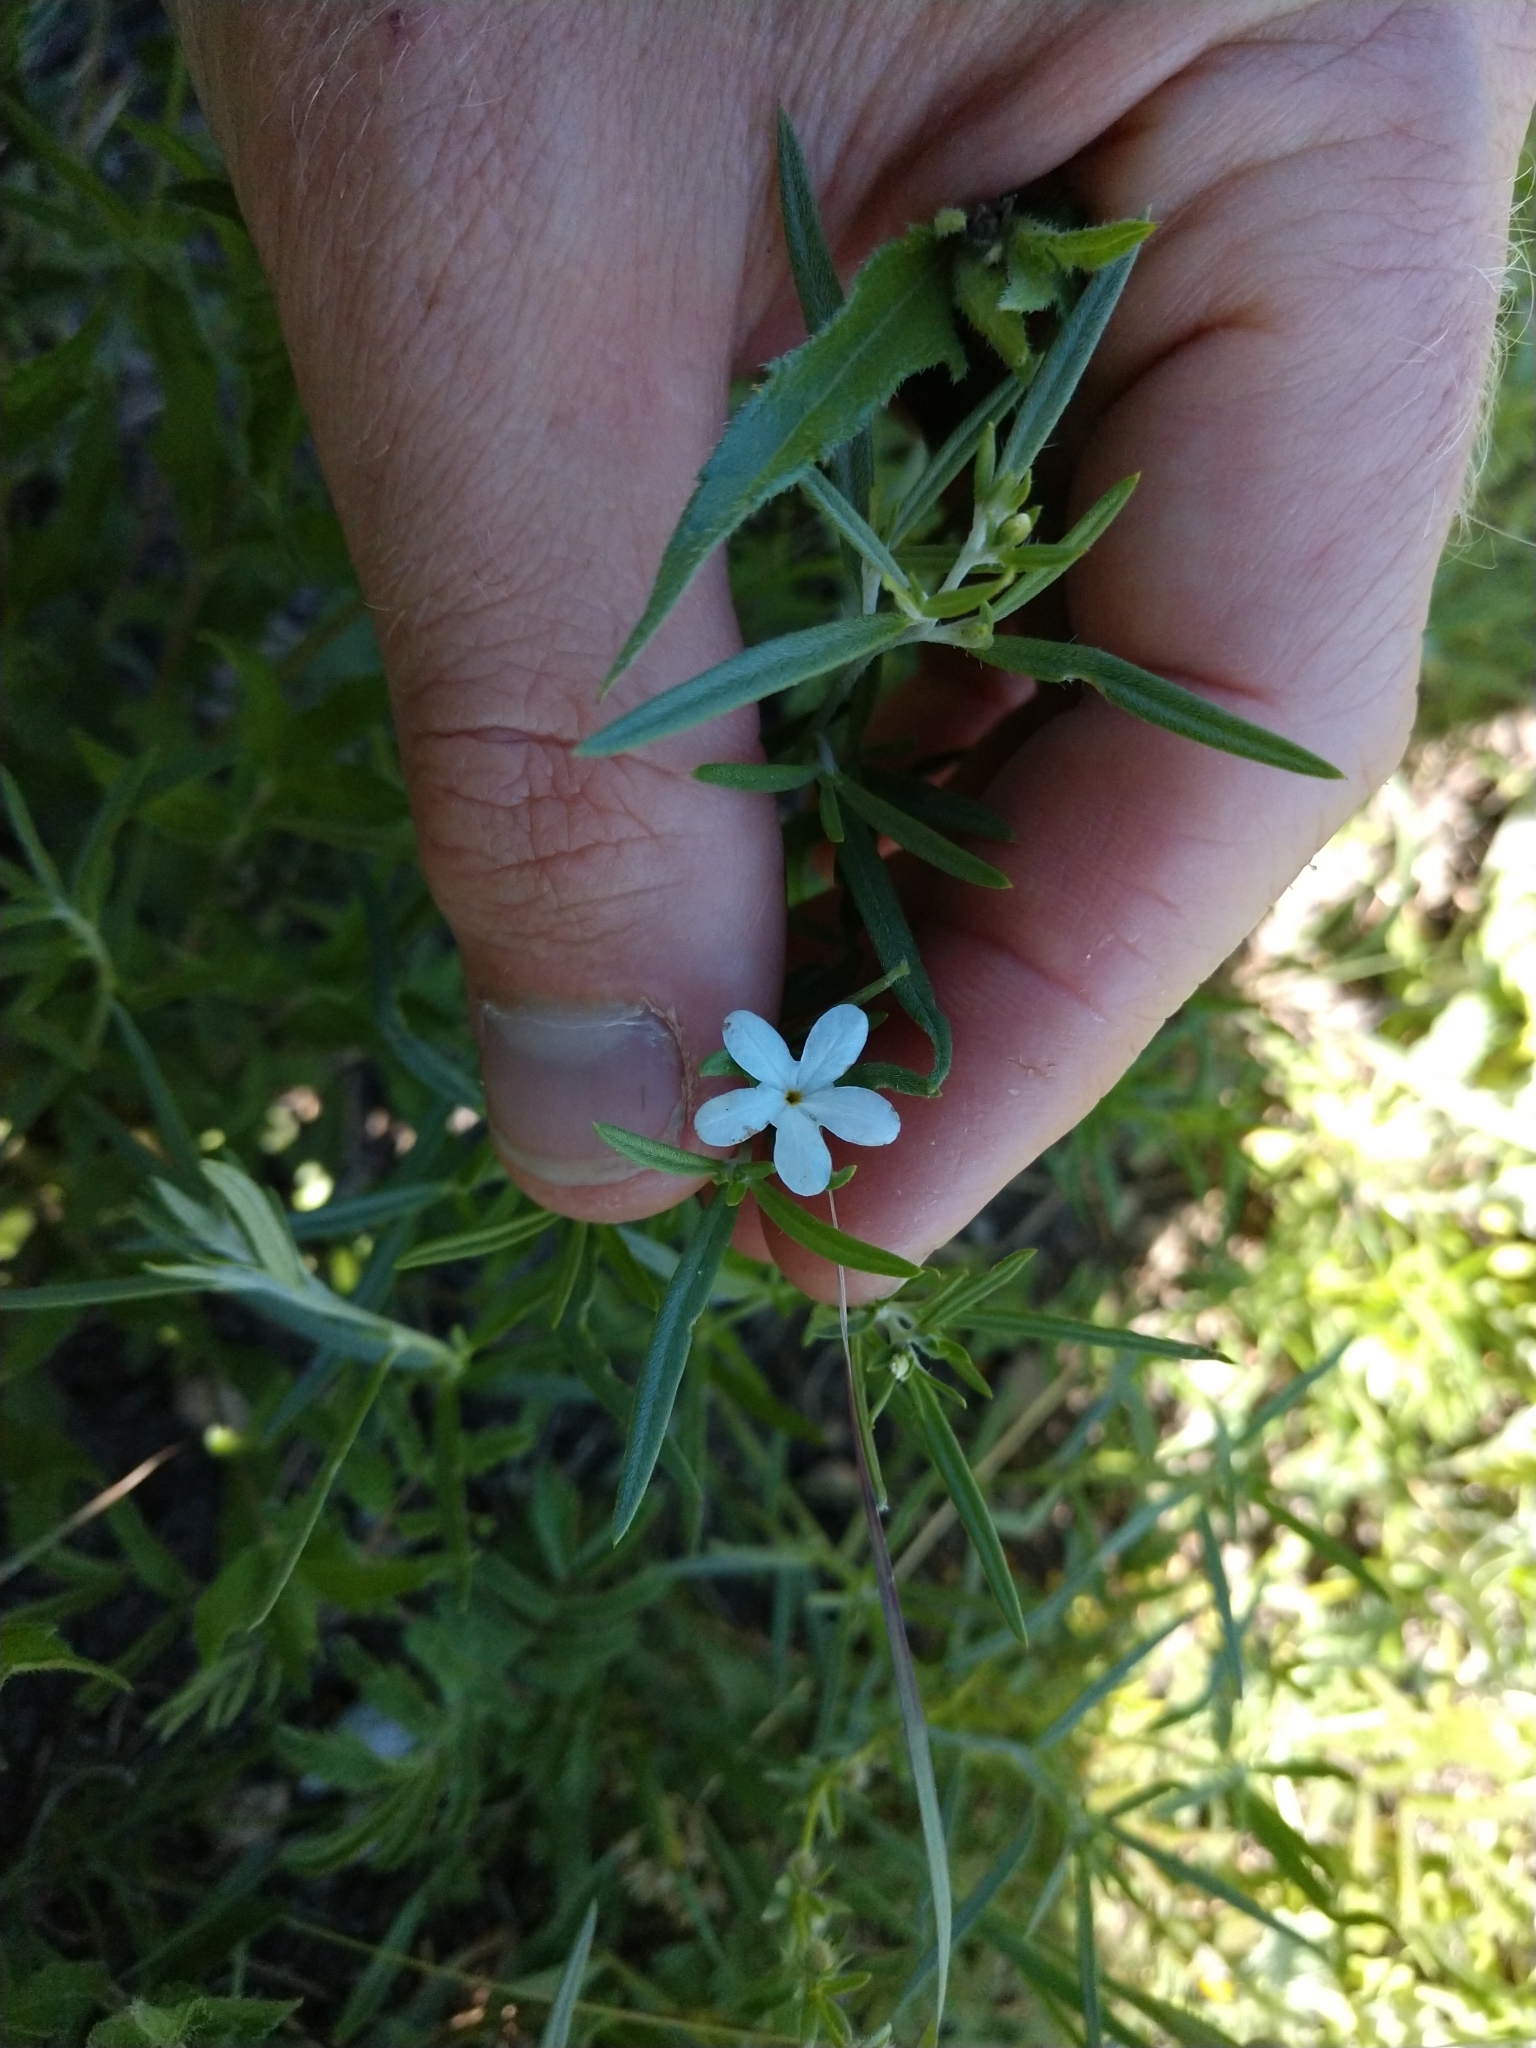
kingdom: Plantae
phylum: Tracheophyta
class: Magnoliopsida
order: Boraginales
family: Heliotropiaceae
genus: Euploca
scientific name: Euploca tenella
